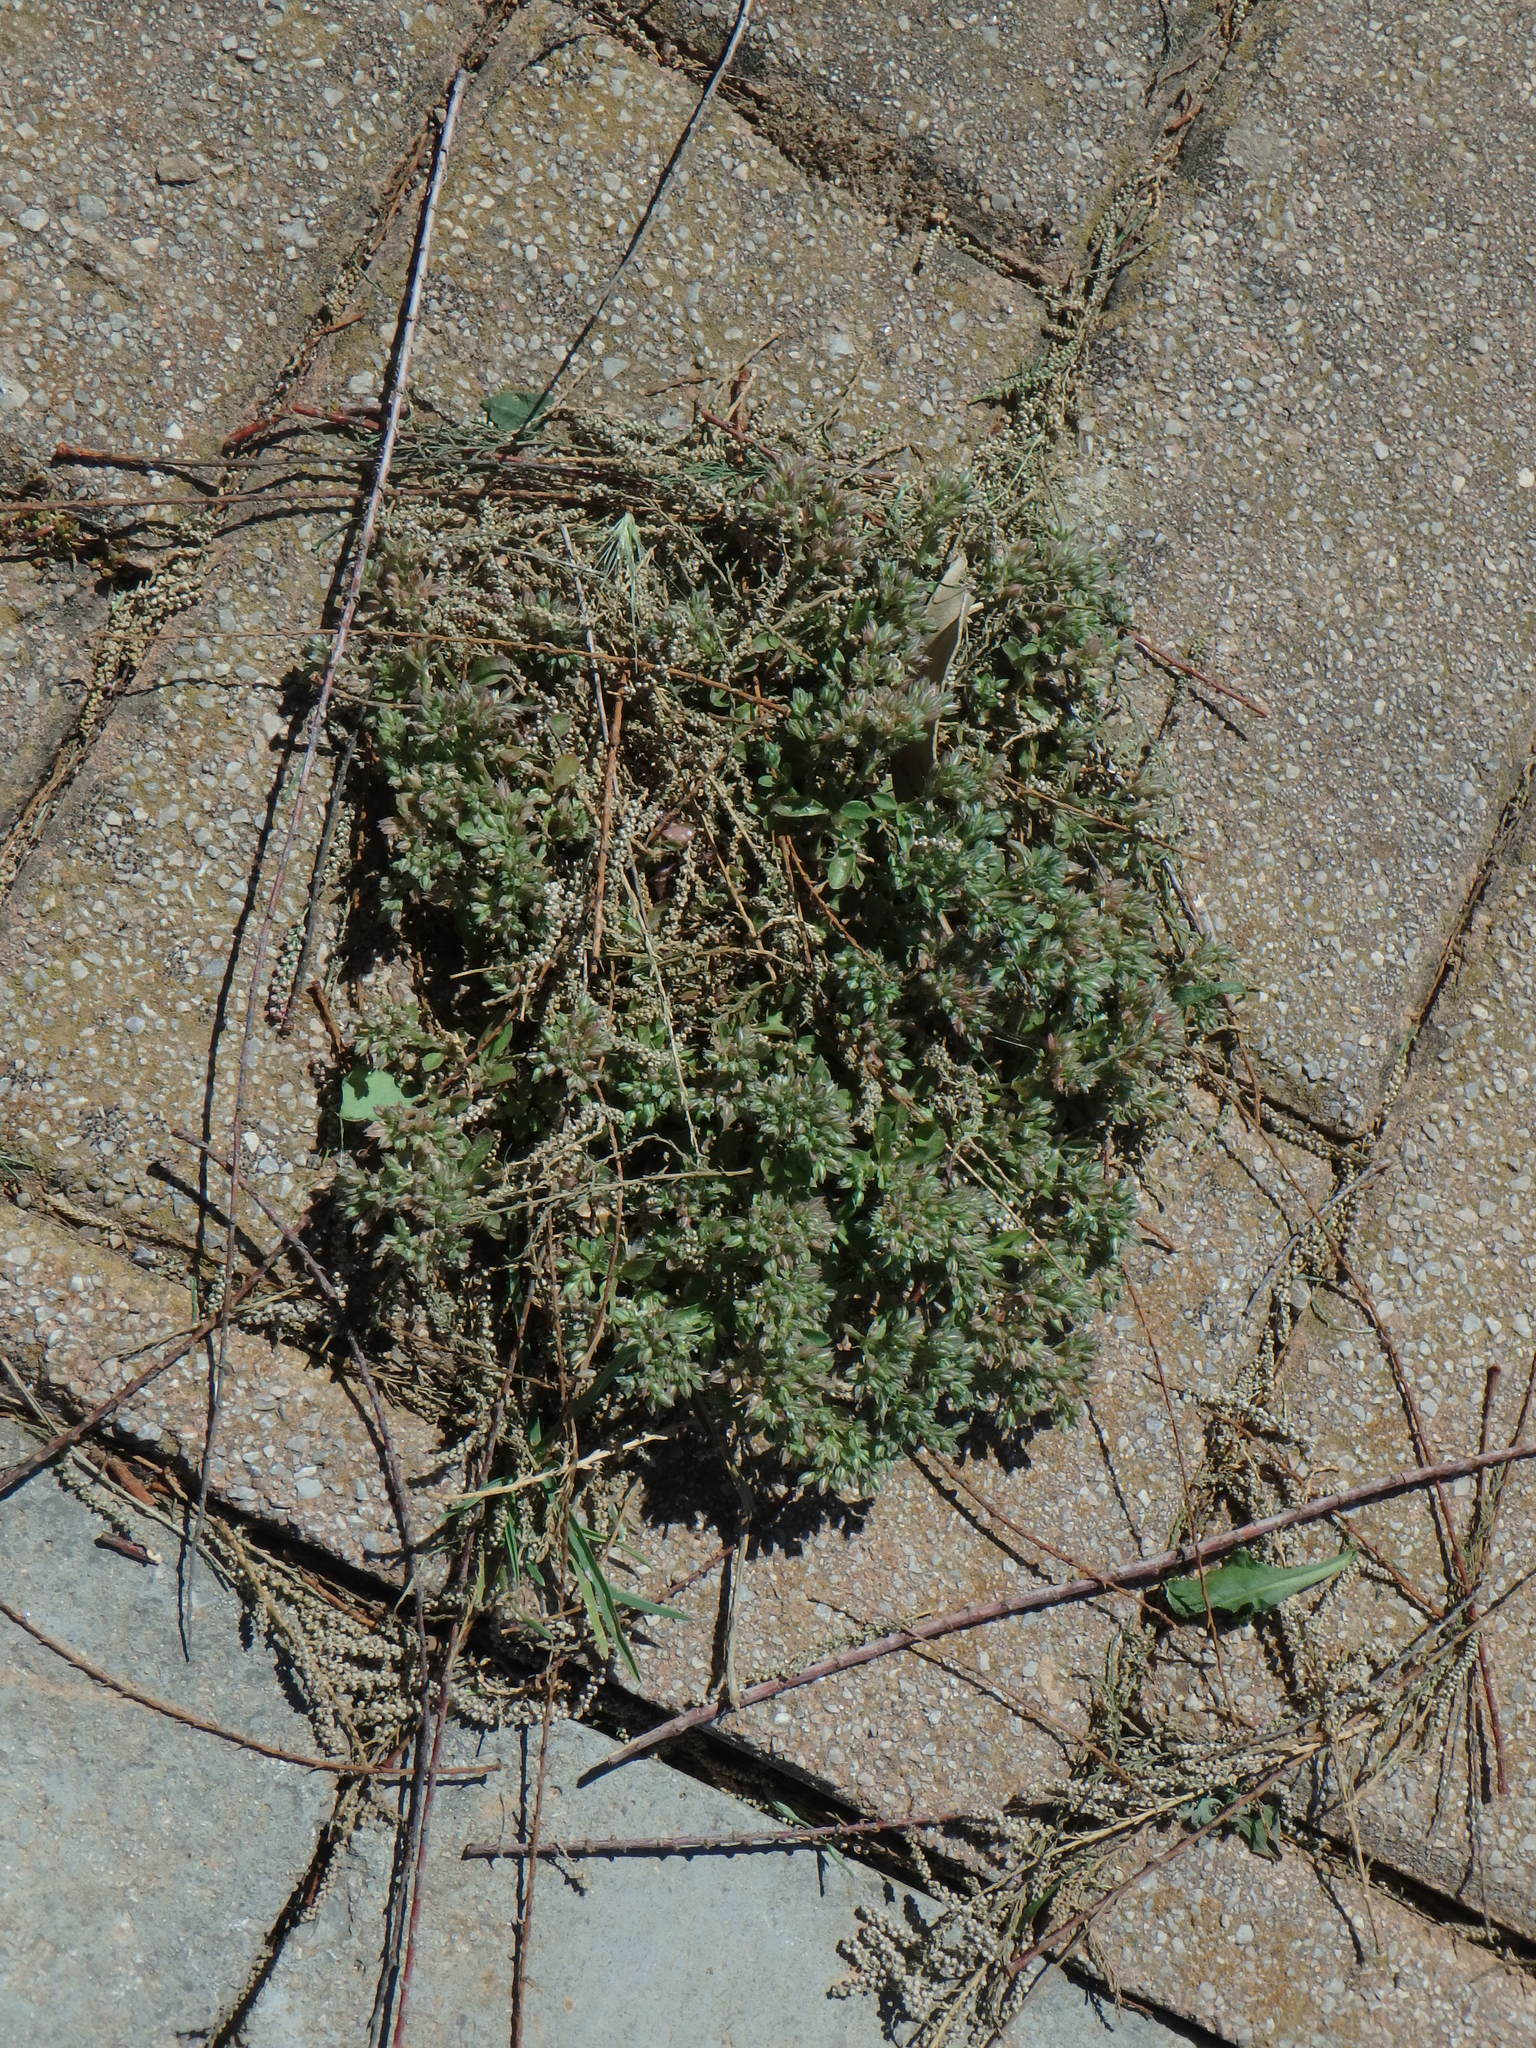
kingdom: Plantae
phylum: Tracheophyta
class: Magnoliopsida
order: Caryophyllales
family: Caryophyllaceae
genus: Polycarpon
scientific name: Polycarpon tetraphyllum
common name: Four-leaved all-seed
